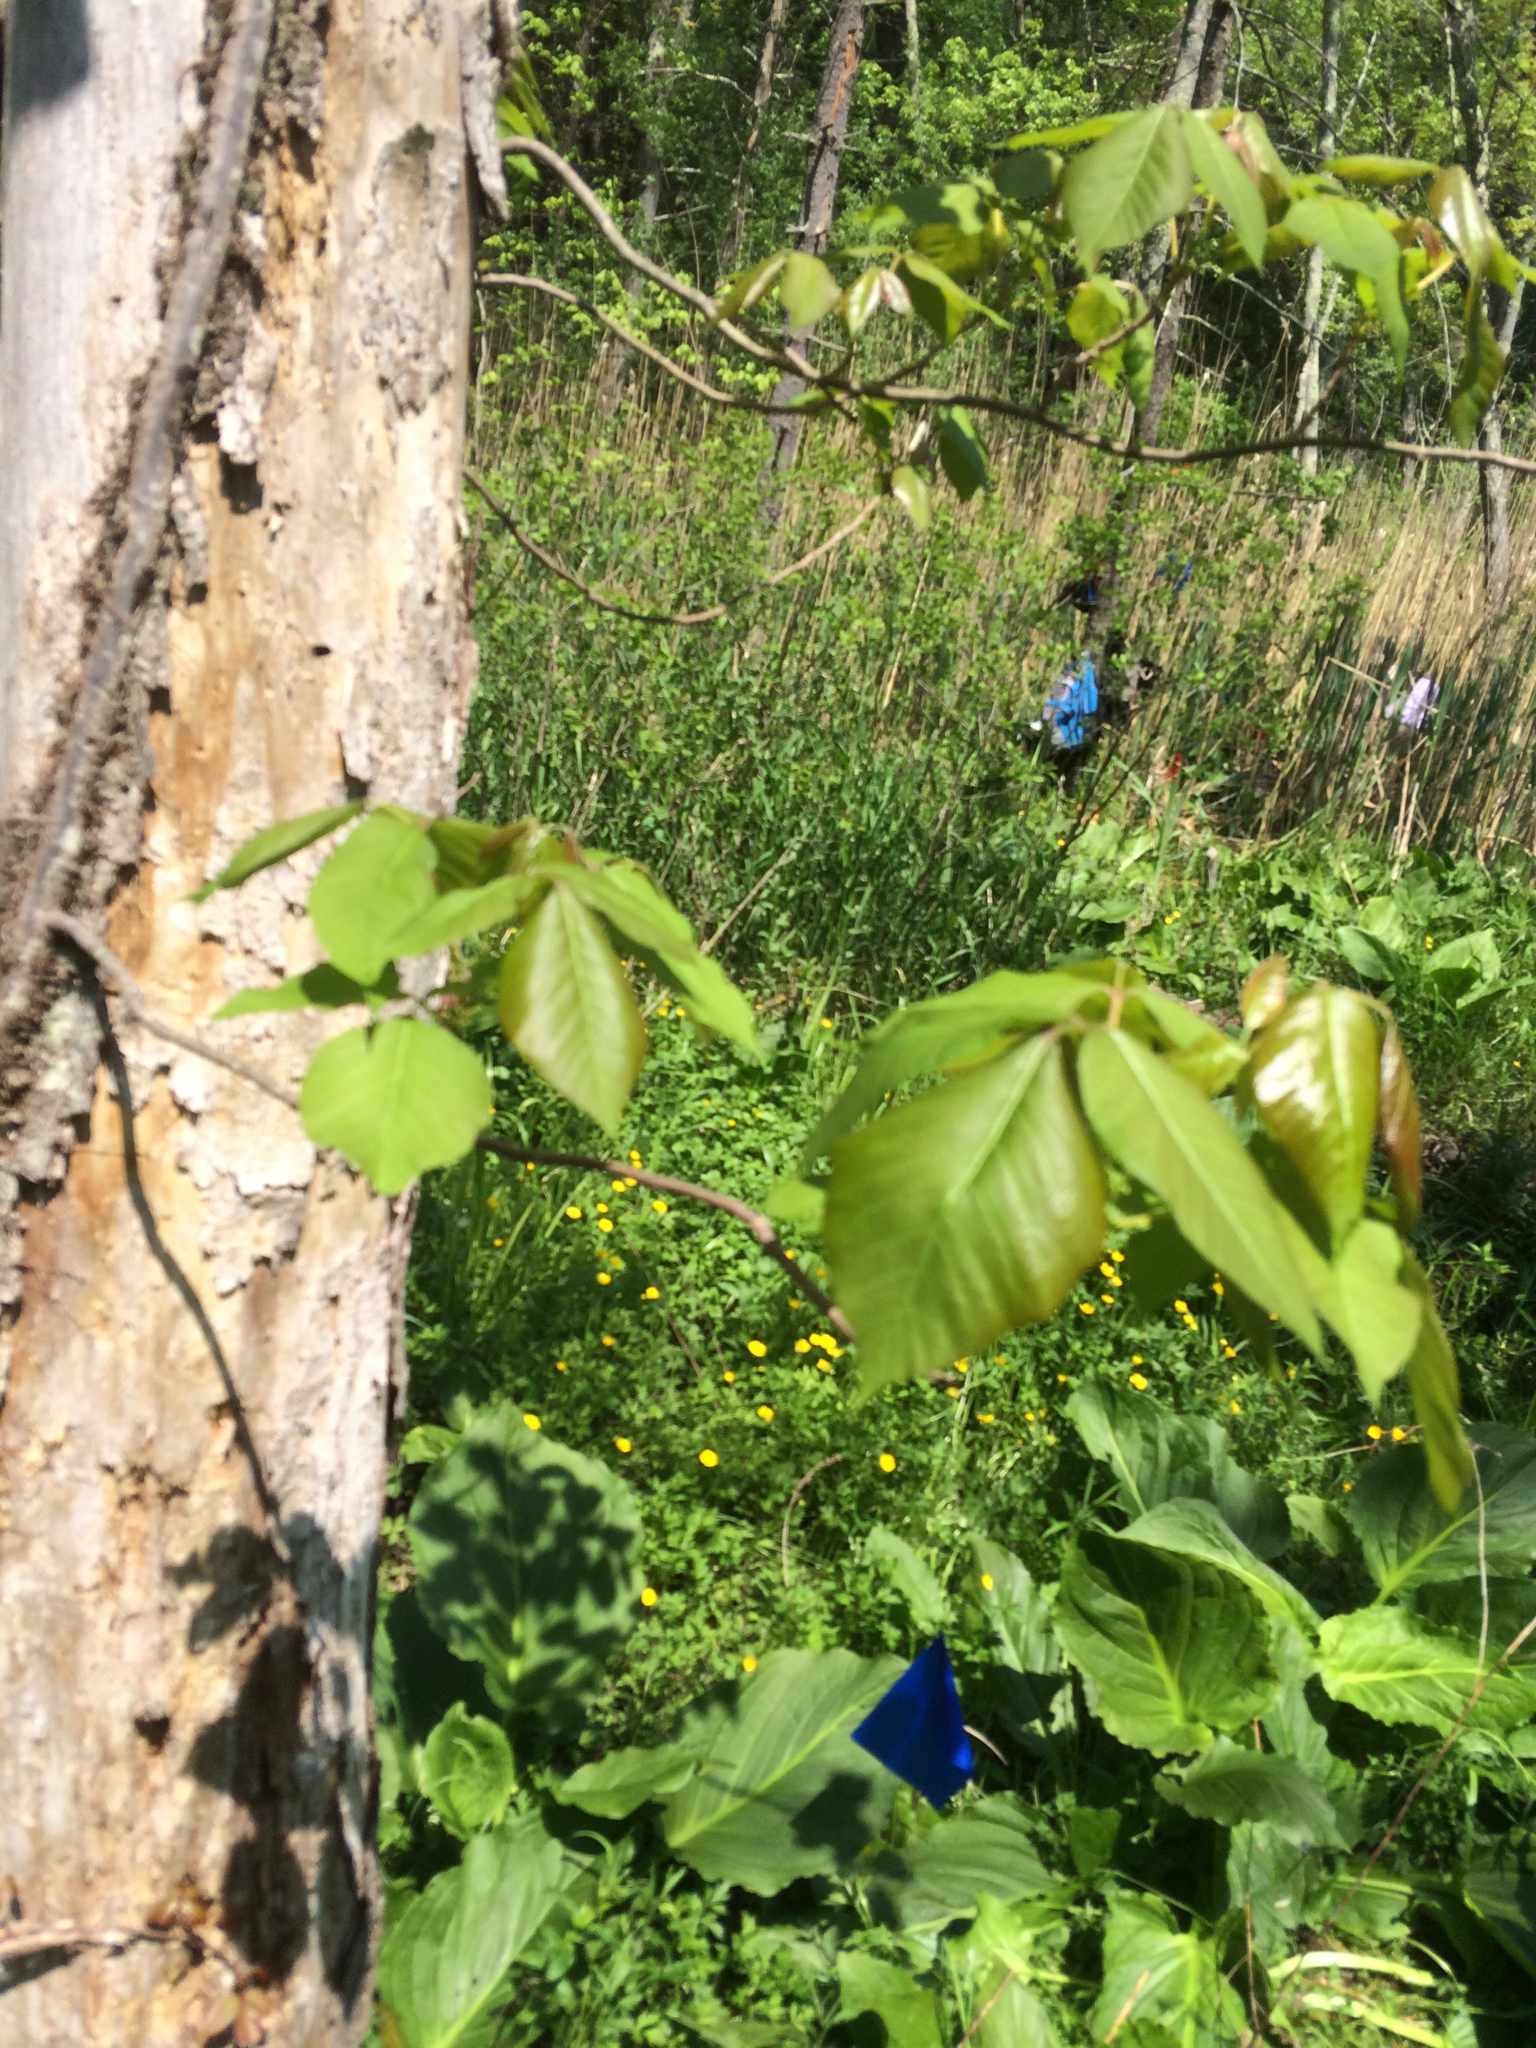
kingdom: Plantae
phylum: Tracheophyta
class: Magnoliopsida
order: Sapindales
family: Anacardiaceae
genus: Toxicodendron
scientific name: Toxicodendron radicans
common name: Poison ivy
